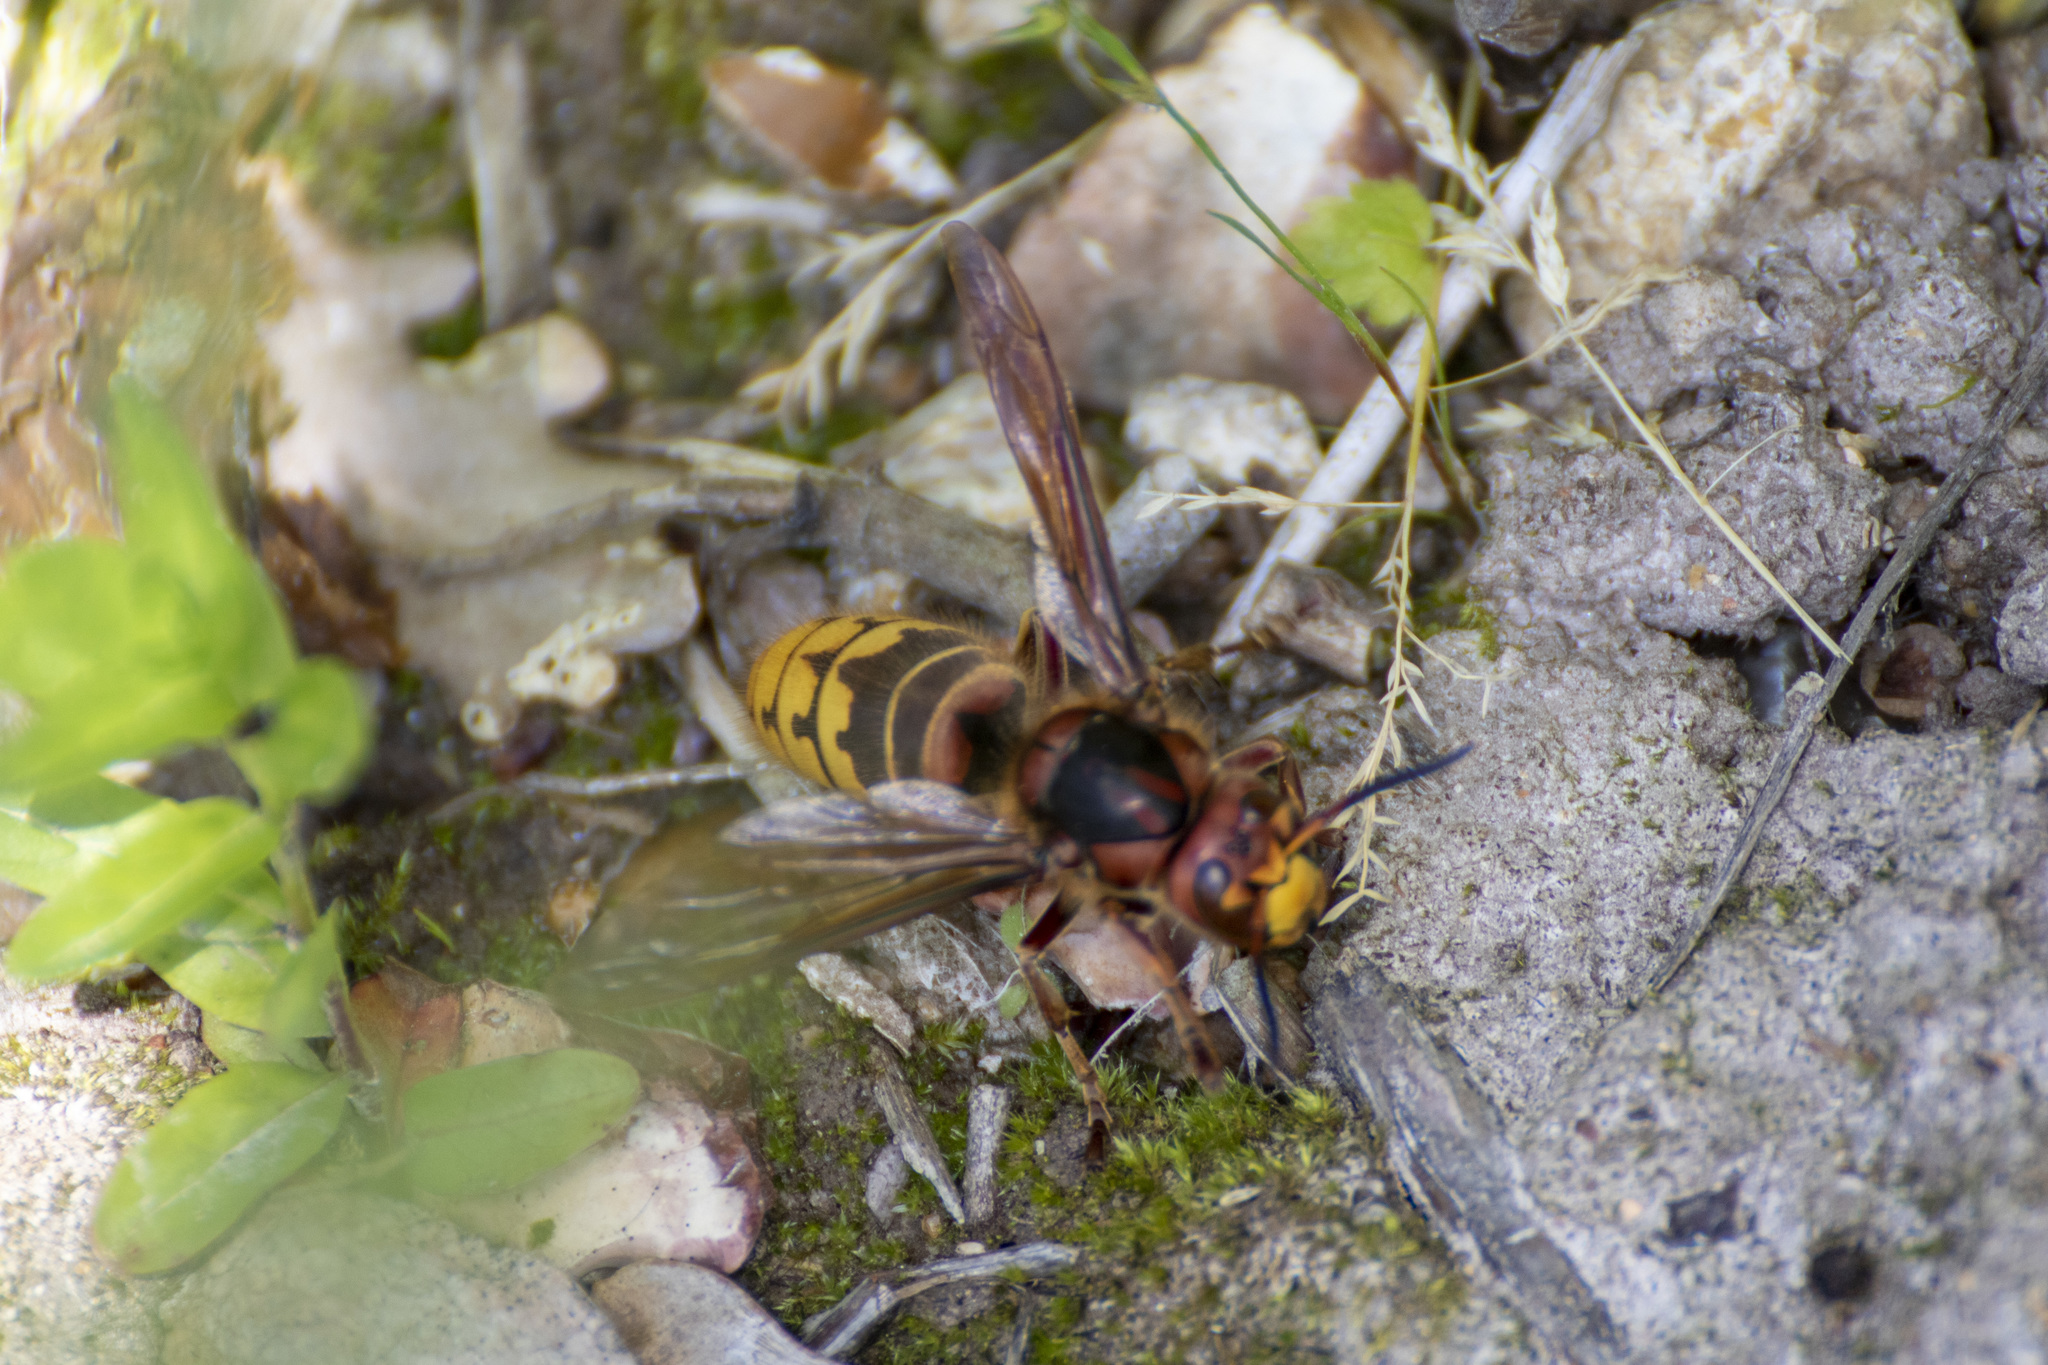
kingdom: Animalia
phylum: Arthropoda
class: Insecta
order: Hymenoptera
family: Vespidae
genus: Vespa
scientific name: Vespa crabro
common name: Hornet
